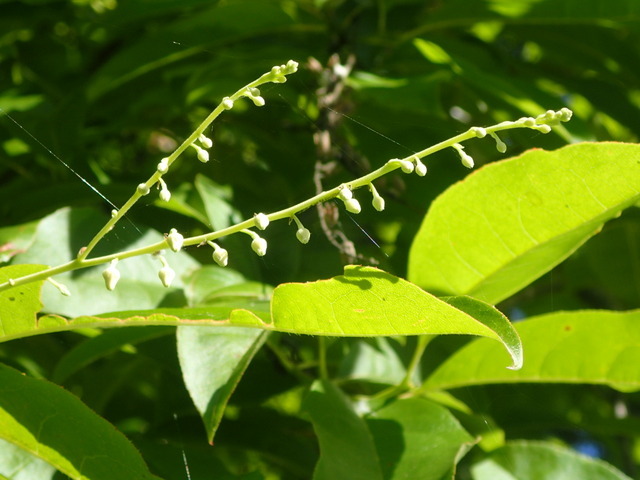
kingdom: Plantae
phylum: Tracheophyta
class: Magnoliopsida
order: Ericales
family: Ericaceae
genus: Oxydendrum
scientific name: Oxydendrum arboreum
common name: Sourwood
